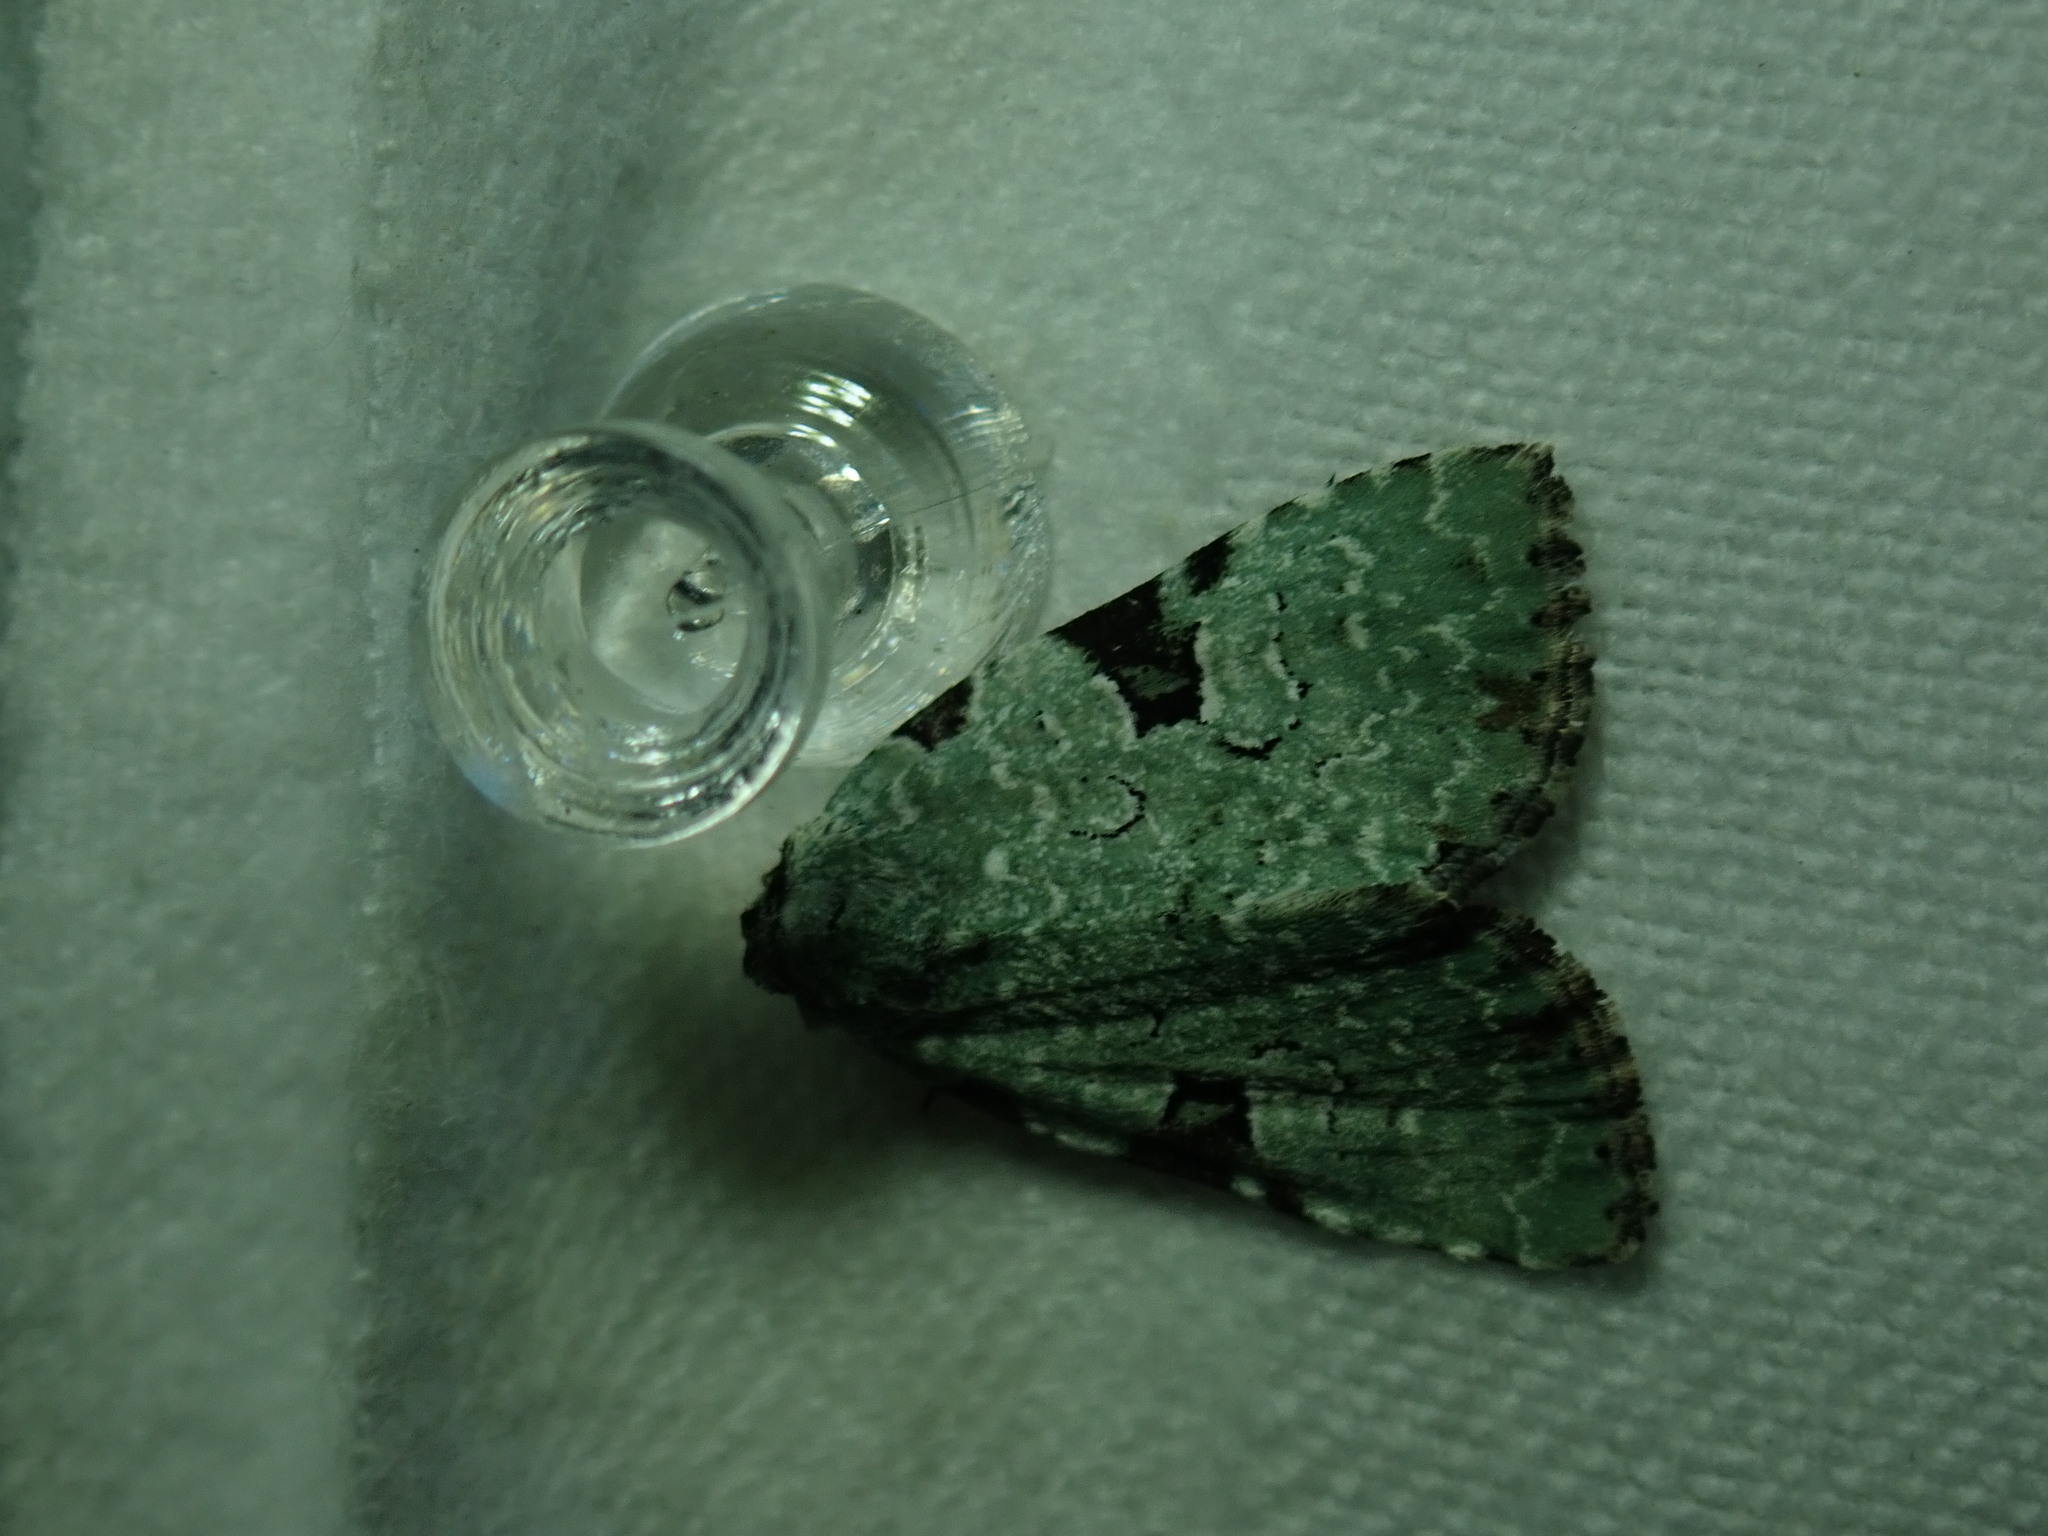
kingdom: Animalia
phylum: Arthropoda
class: Insecta
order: Lepidoptera
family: Noctuidae
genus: Leuconycta
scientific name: Leuconycta diphteroides
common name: Green leuconycta moth
